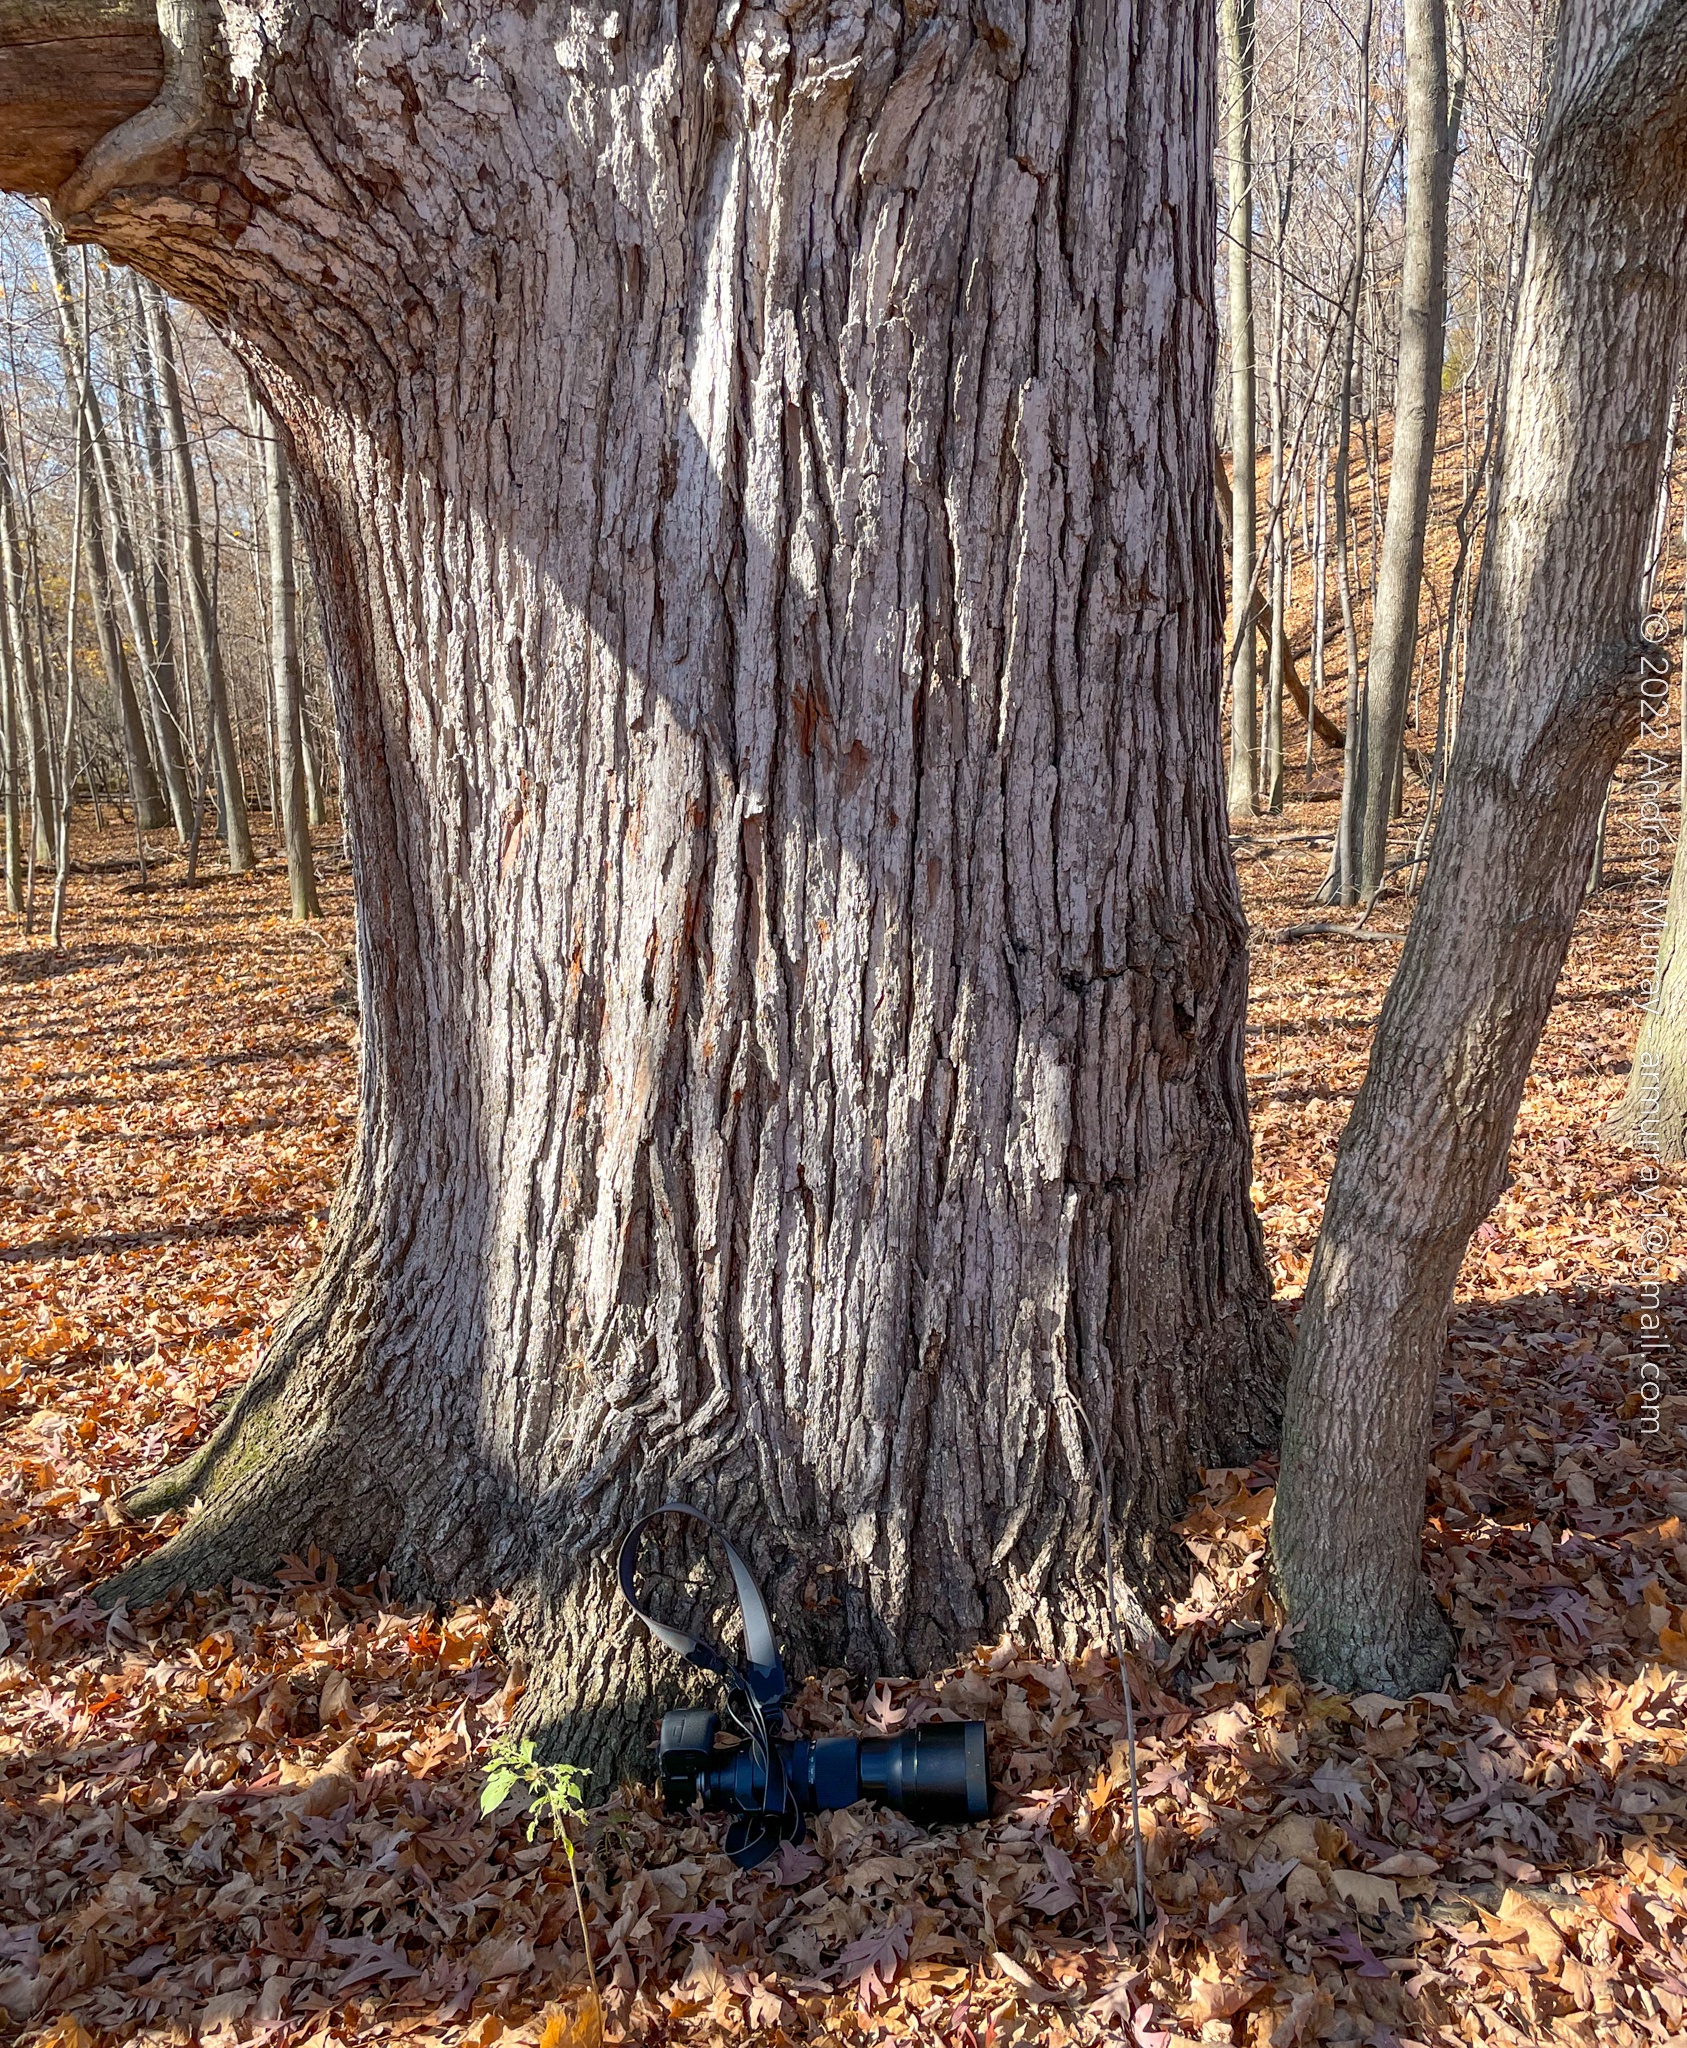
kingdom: Plantae
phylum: Tracheophyta
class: Magnoliopsida
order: Fagales
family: Fagaceae
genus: Quercus
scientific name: Quercus alba
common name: White oak
